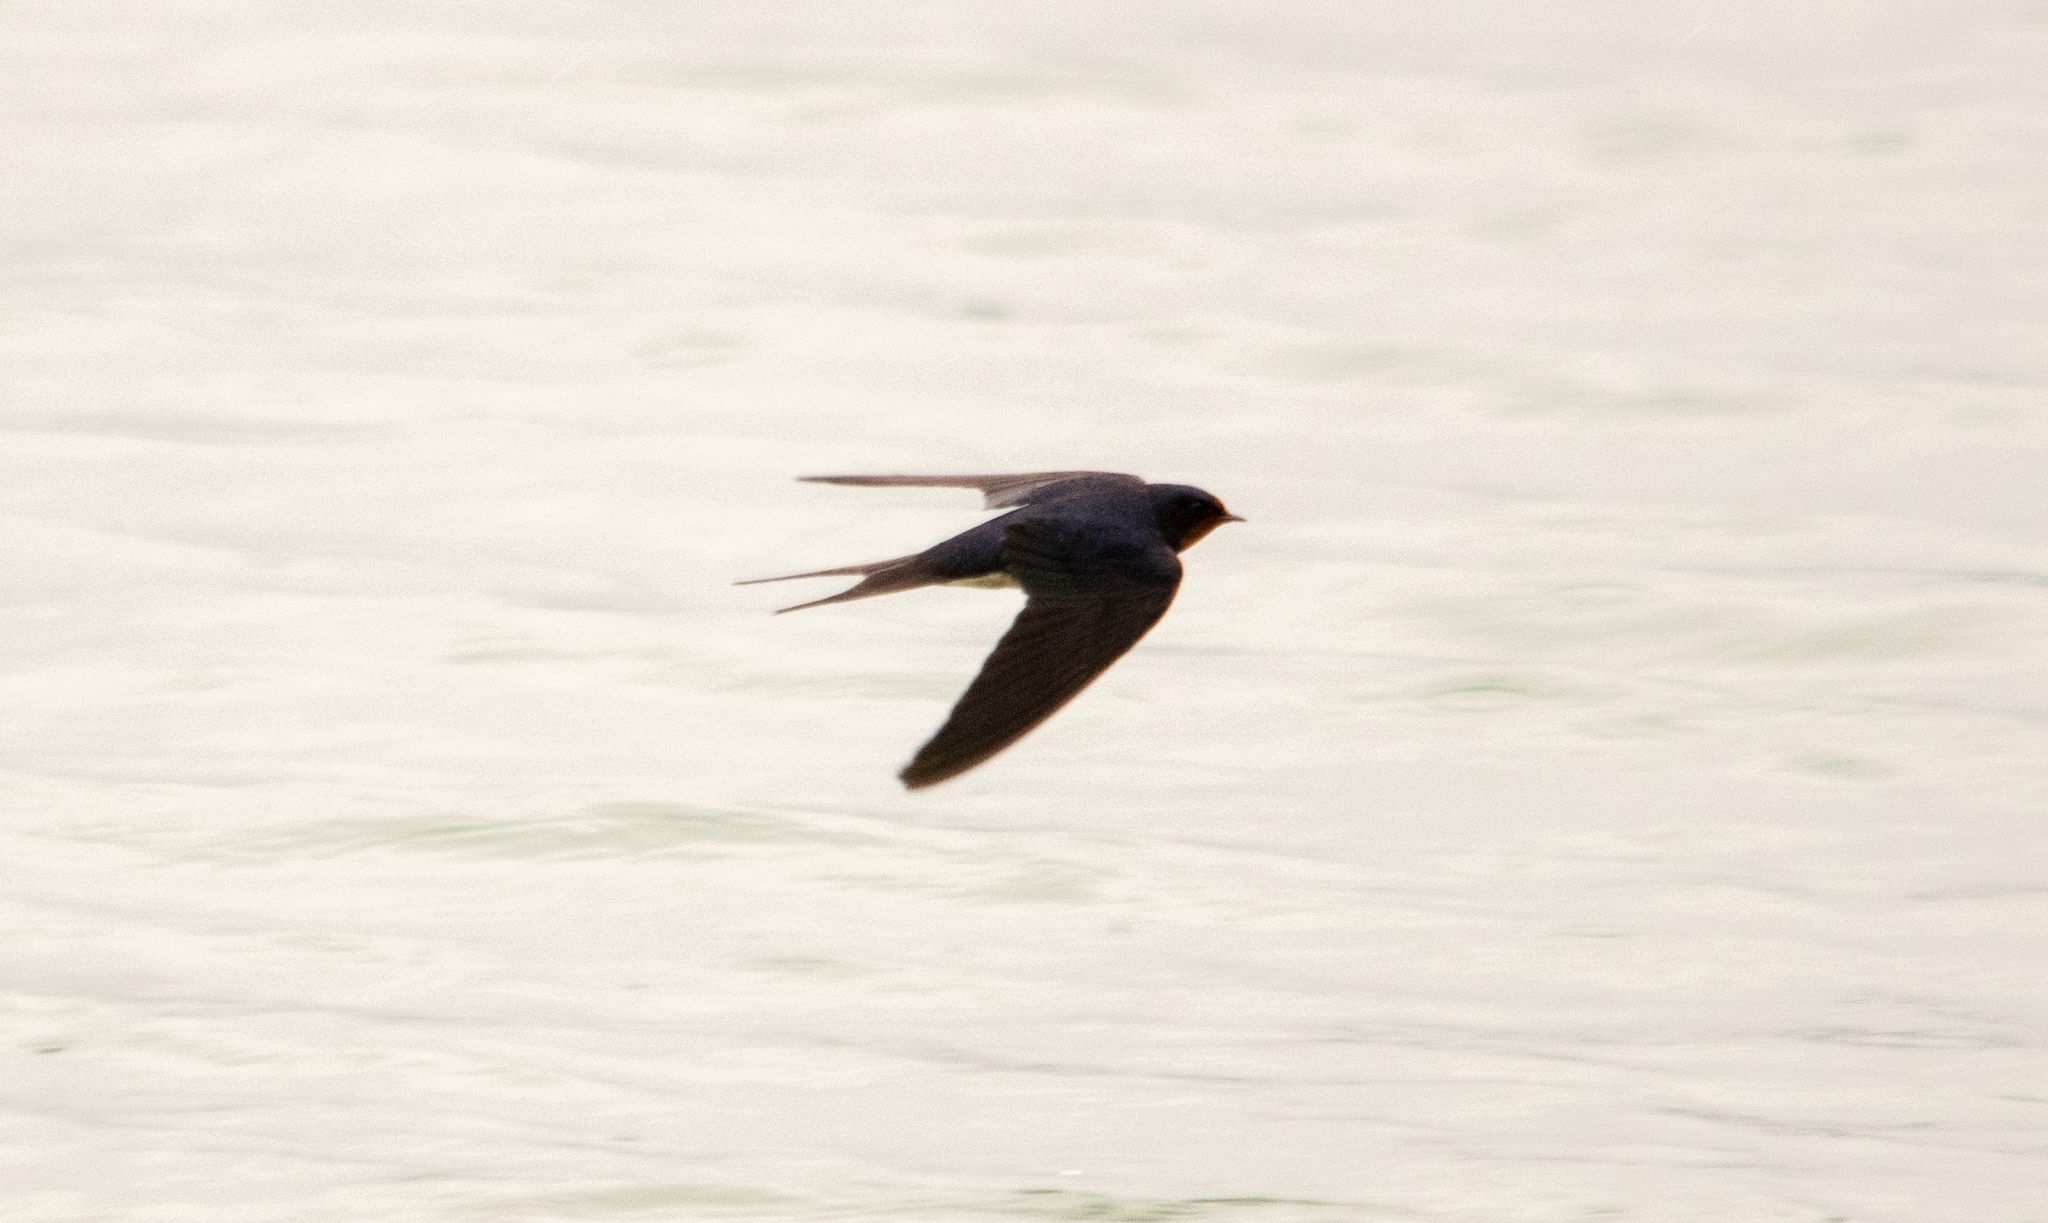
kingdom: Animalia
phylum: Chordata
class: Aves
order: Passeriformes
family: Hirundinidae
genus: Hirundo
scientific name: Hirundo rustica
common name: Barn swallow
